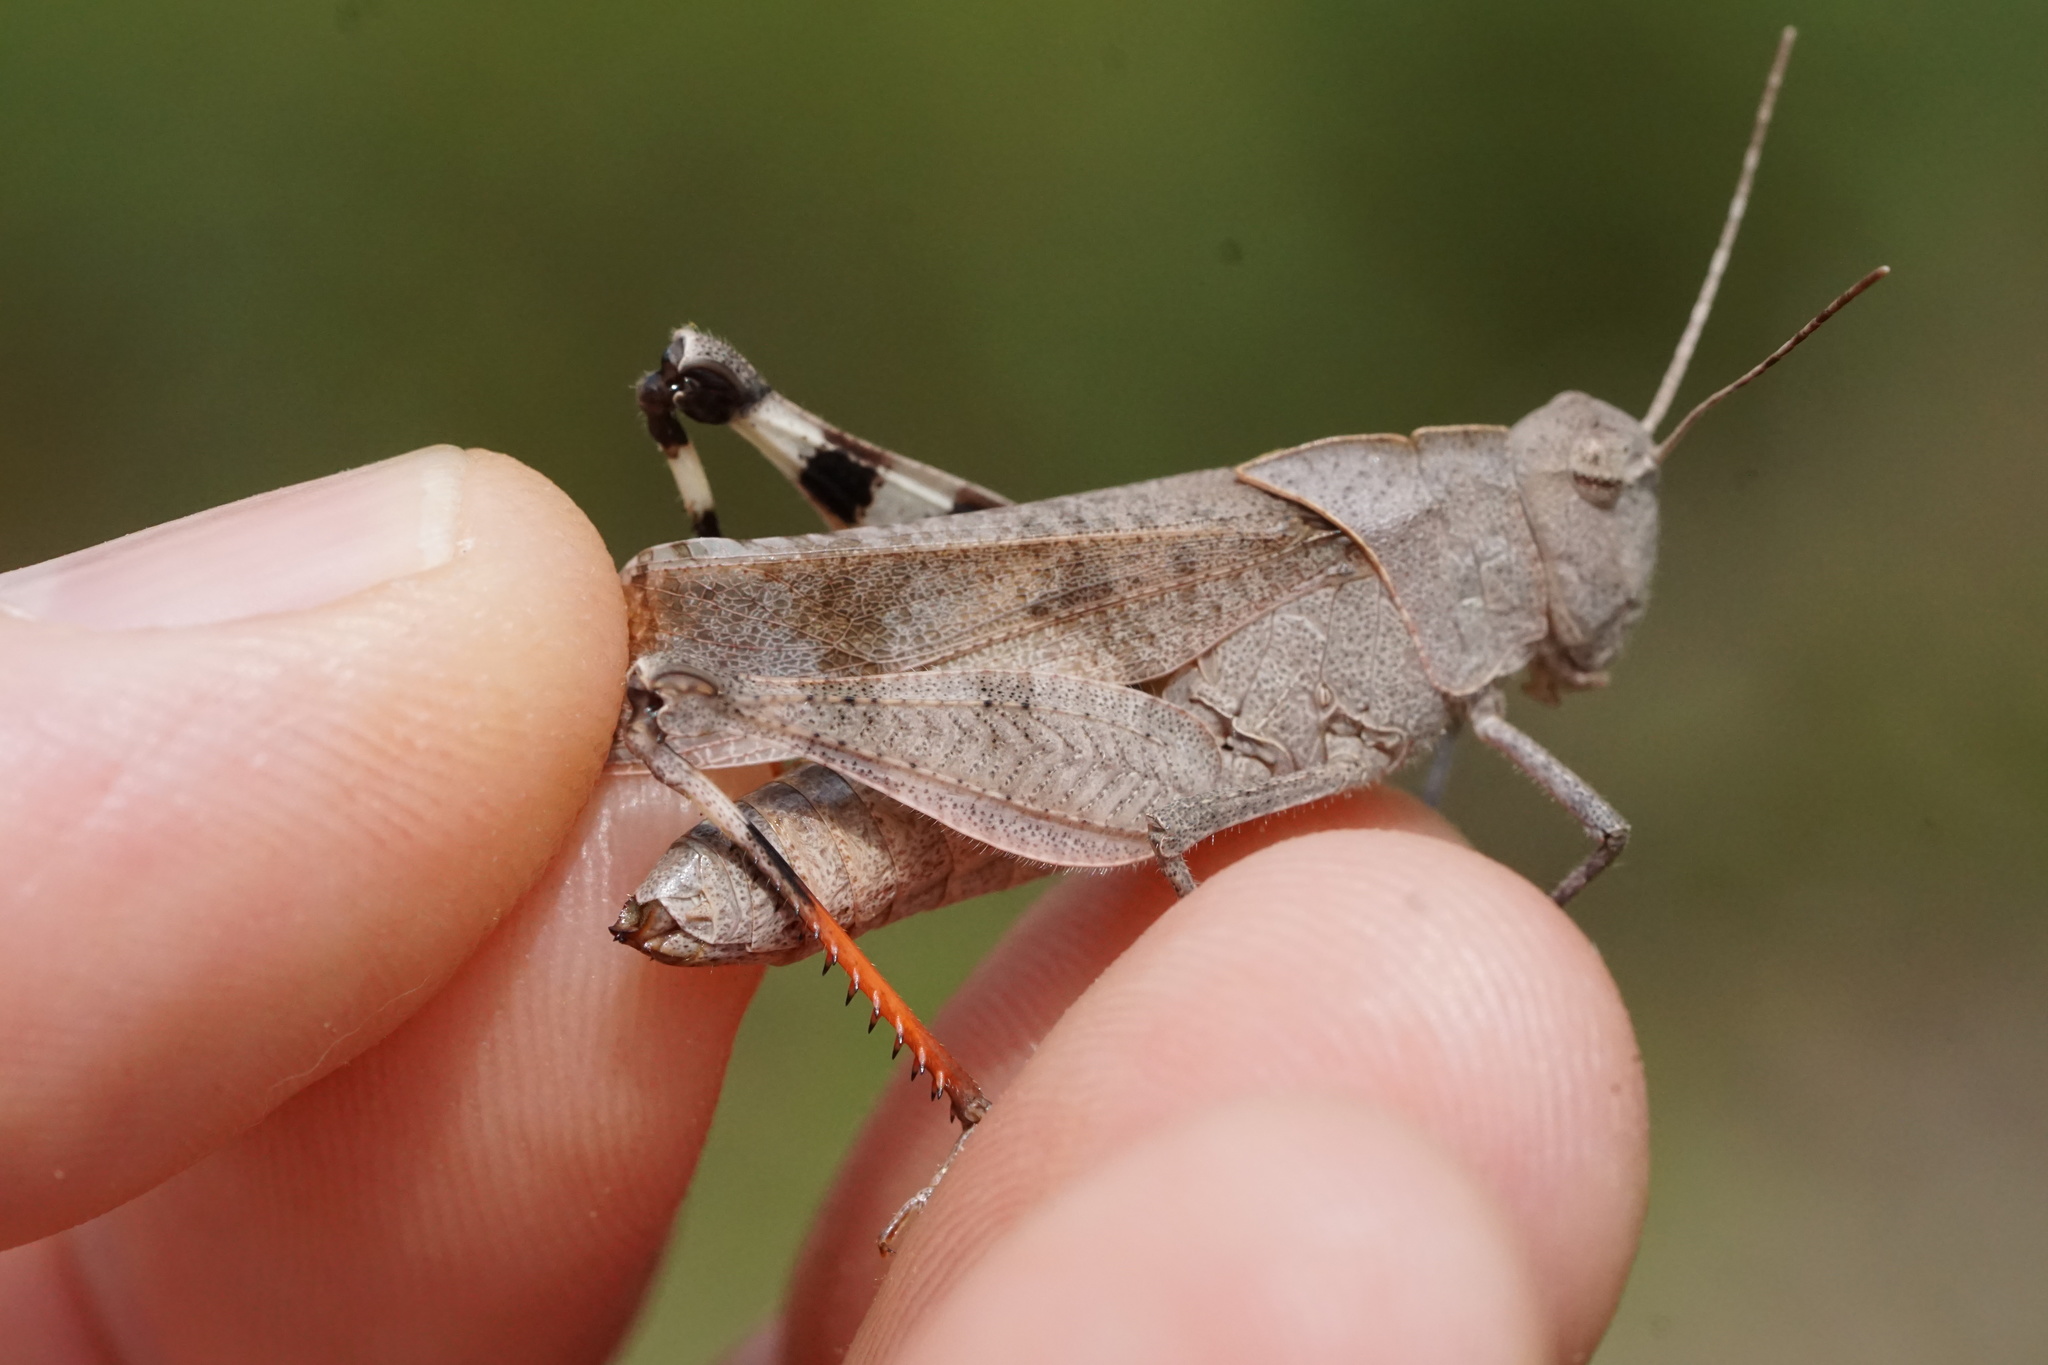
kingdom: Animalia
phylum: Arthropoda
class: Insecta
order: Orthoptera
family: Acrididae
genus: Spharagemon
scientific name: Spharagemon bolli
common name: Boll's grasshopper
